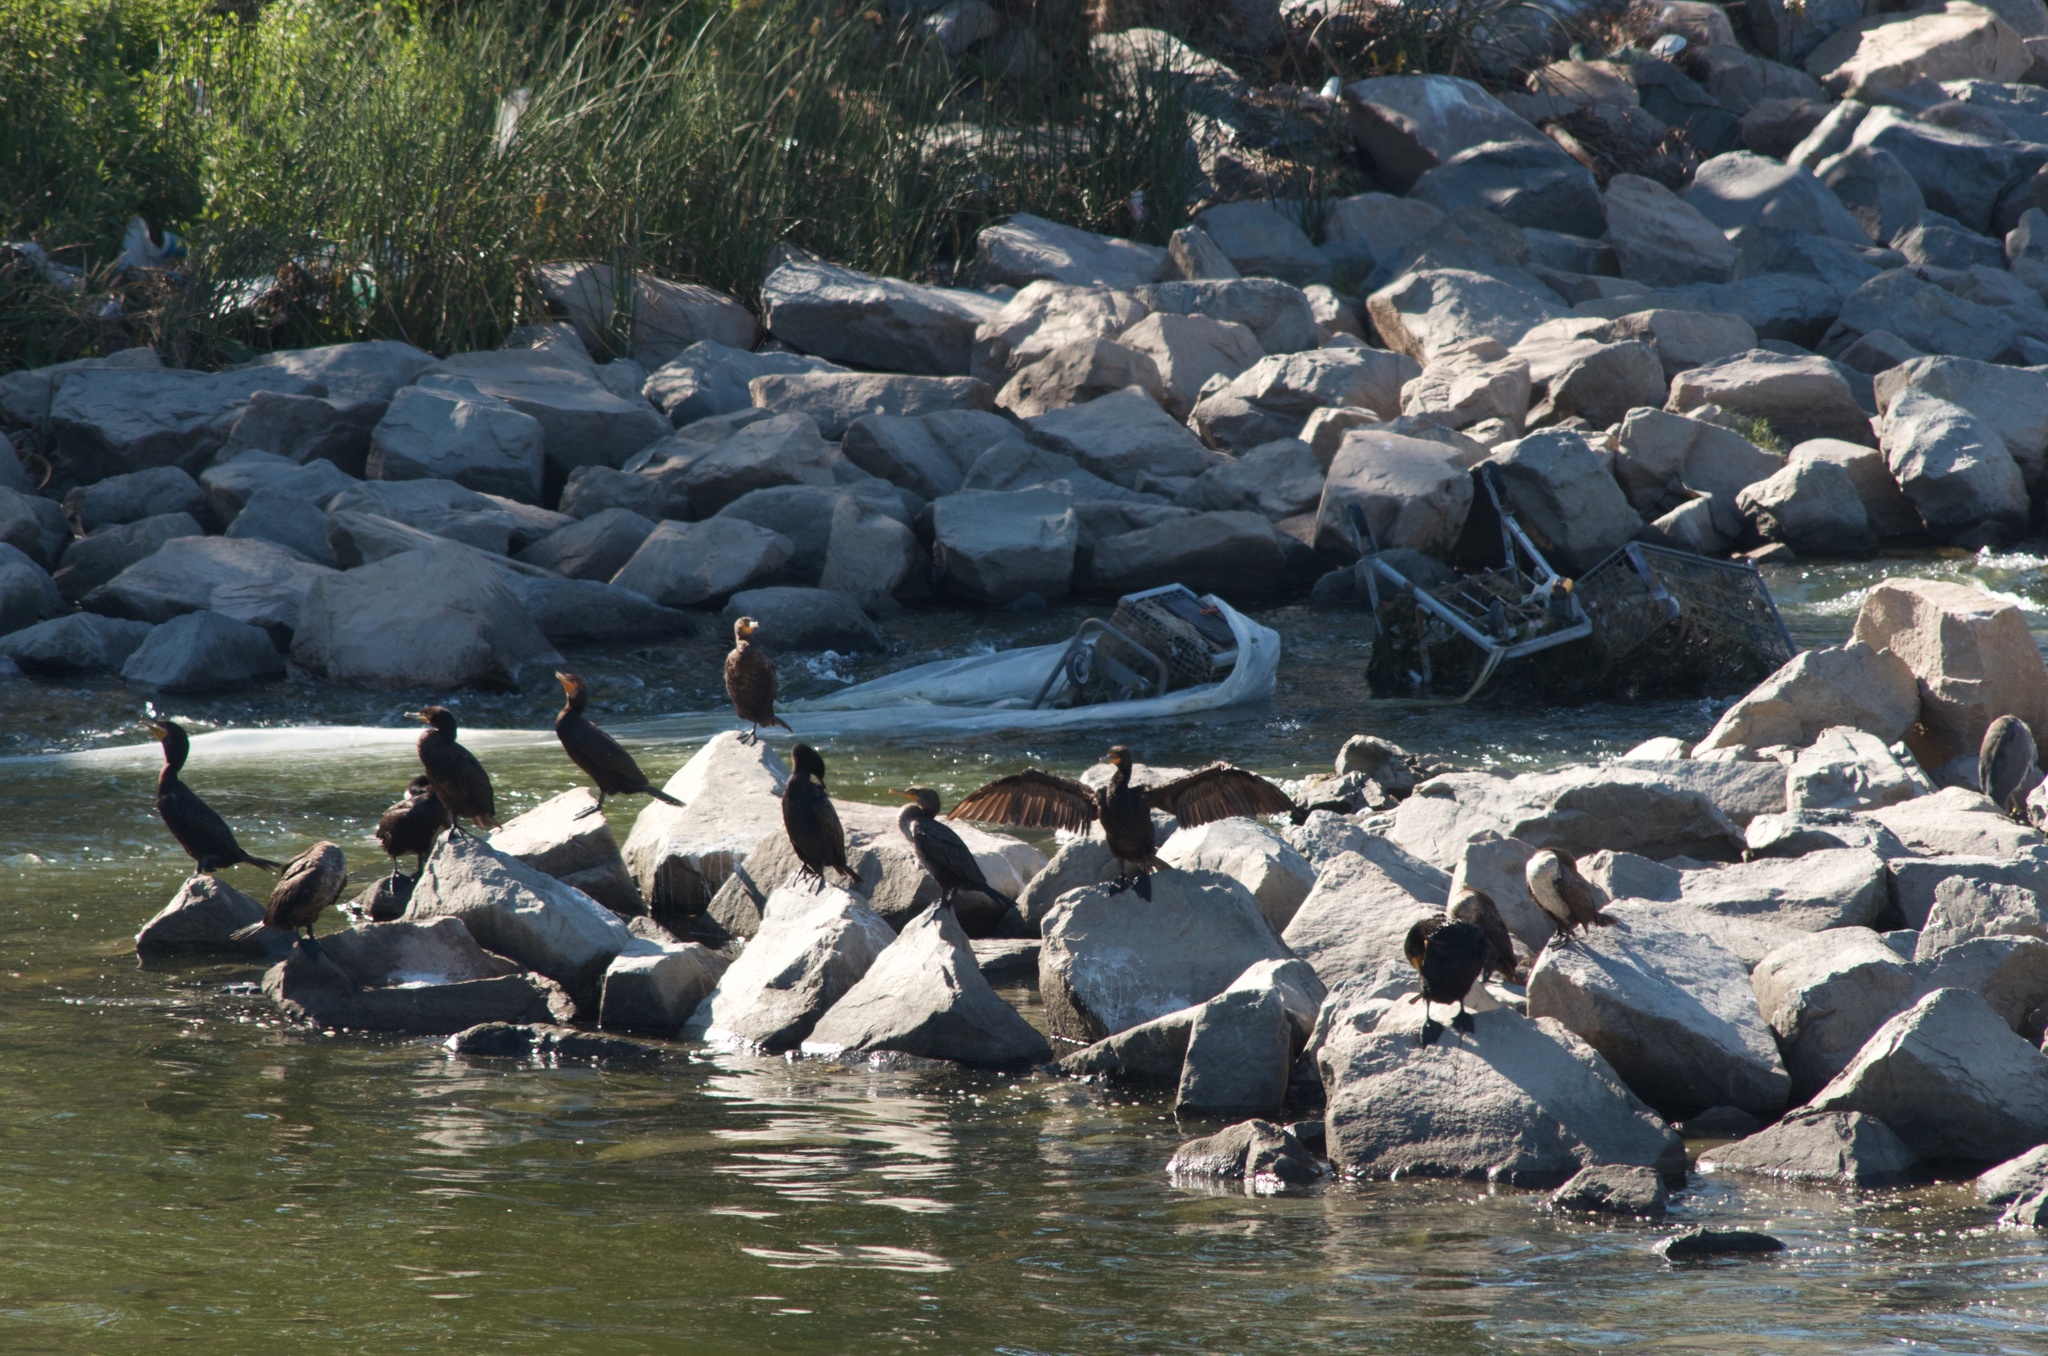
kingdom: Animalia
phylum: Chordata
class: Aves
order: Suliformes
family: Phalacrocoracidae
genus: Phalacrocorax
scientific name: Phalacrocorax auritus
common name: Double-crested cormorant
